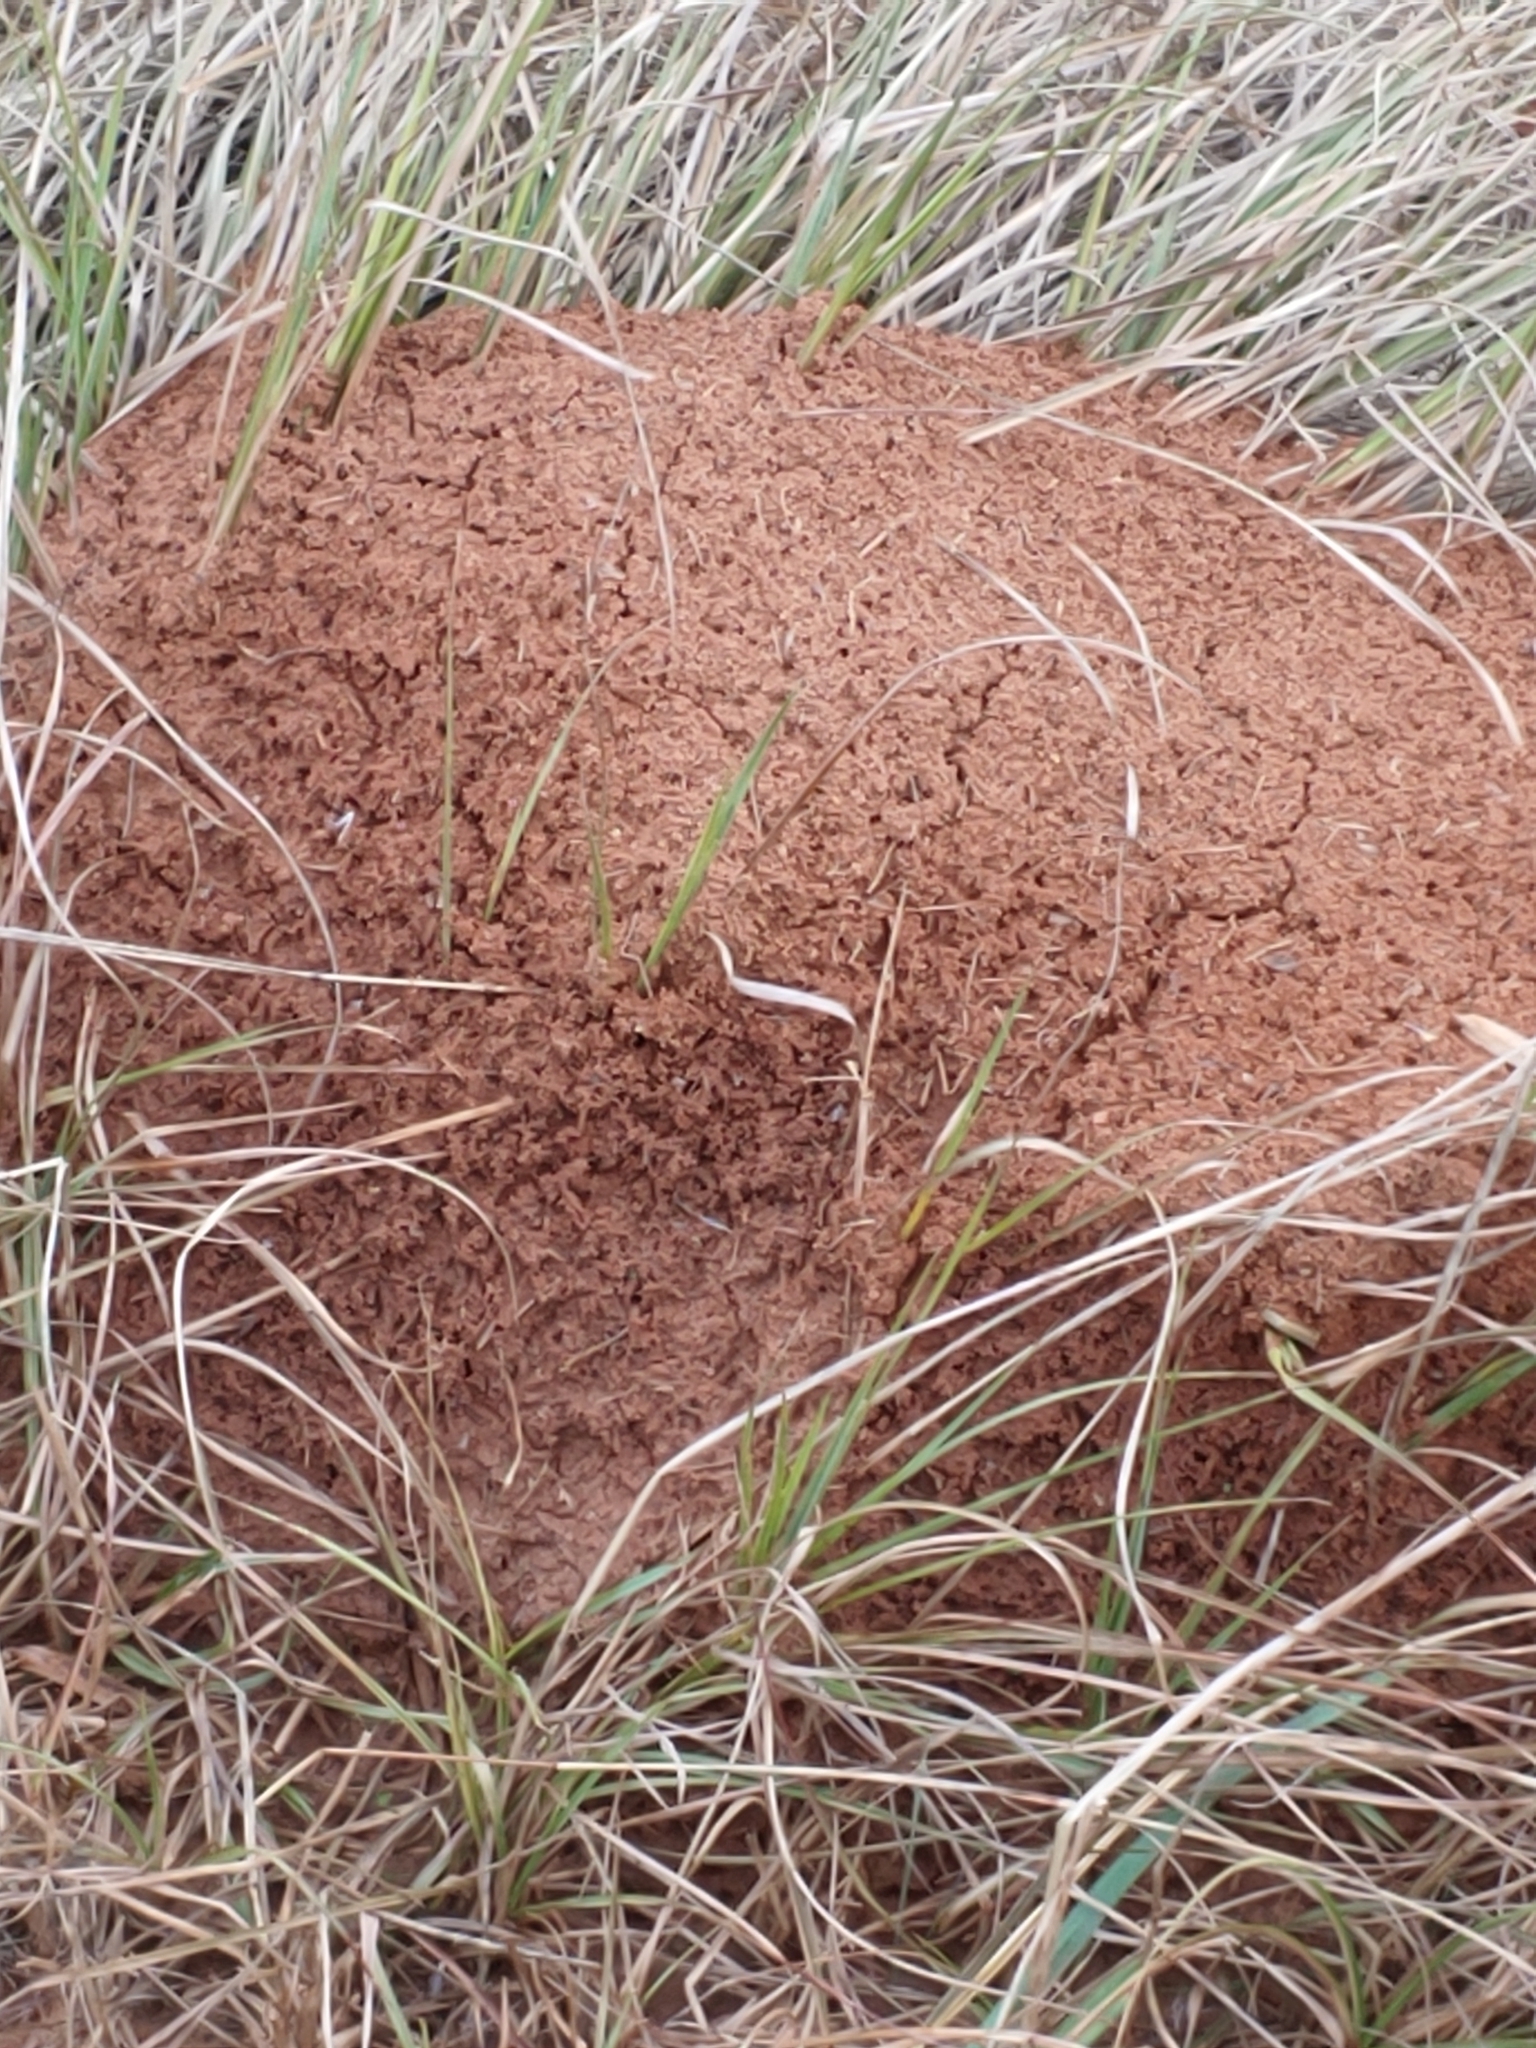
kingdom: Animalia
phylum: Arthropoda
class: Insecta
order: Hymenoptera
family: Formicidae
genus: Solenopsis
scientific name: Solenopsis invicta
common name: Red imported fire ant
